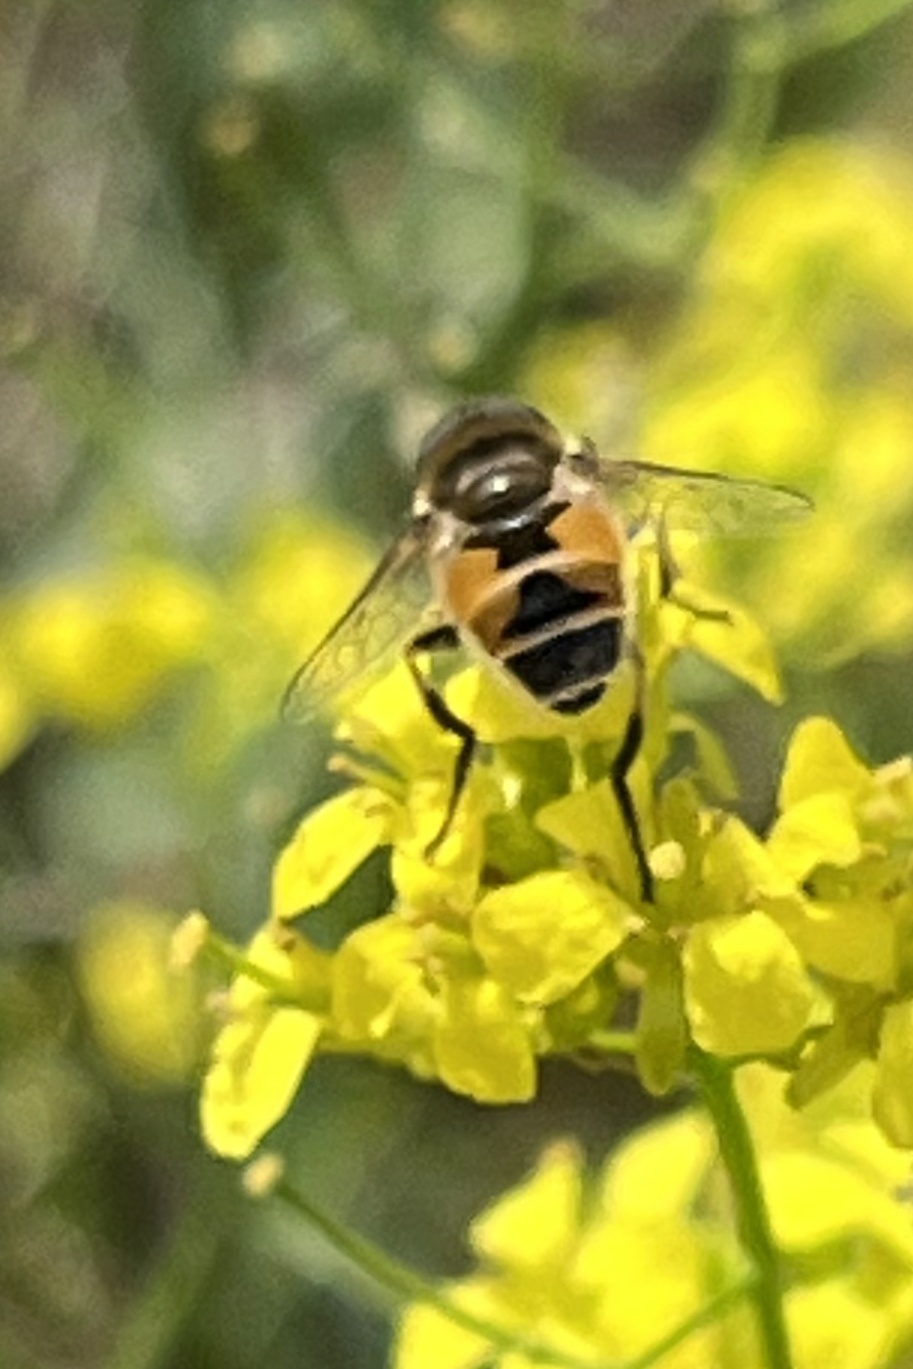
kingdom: Animalia
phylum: Arthropoda
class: Insecta
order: Diptera
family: Syrphidae
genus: Eristalis
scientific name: Eristalis arbustorum
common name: Hover fly
